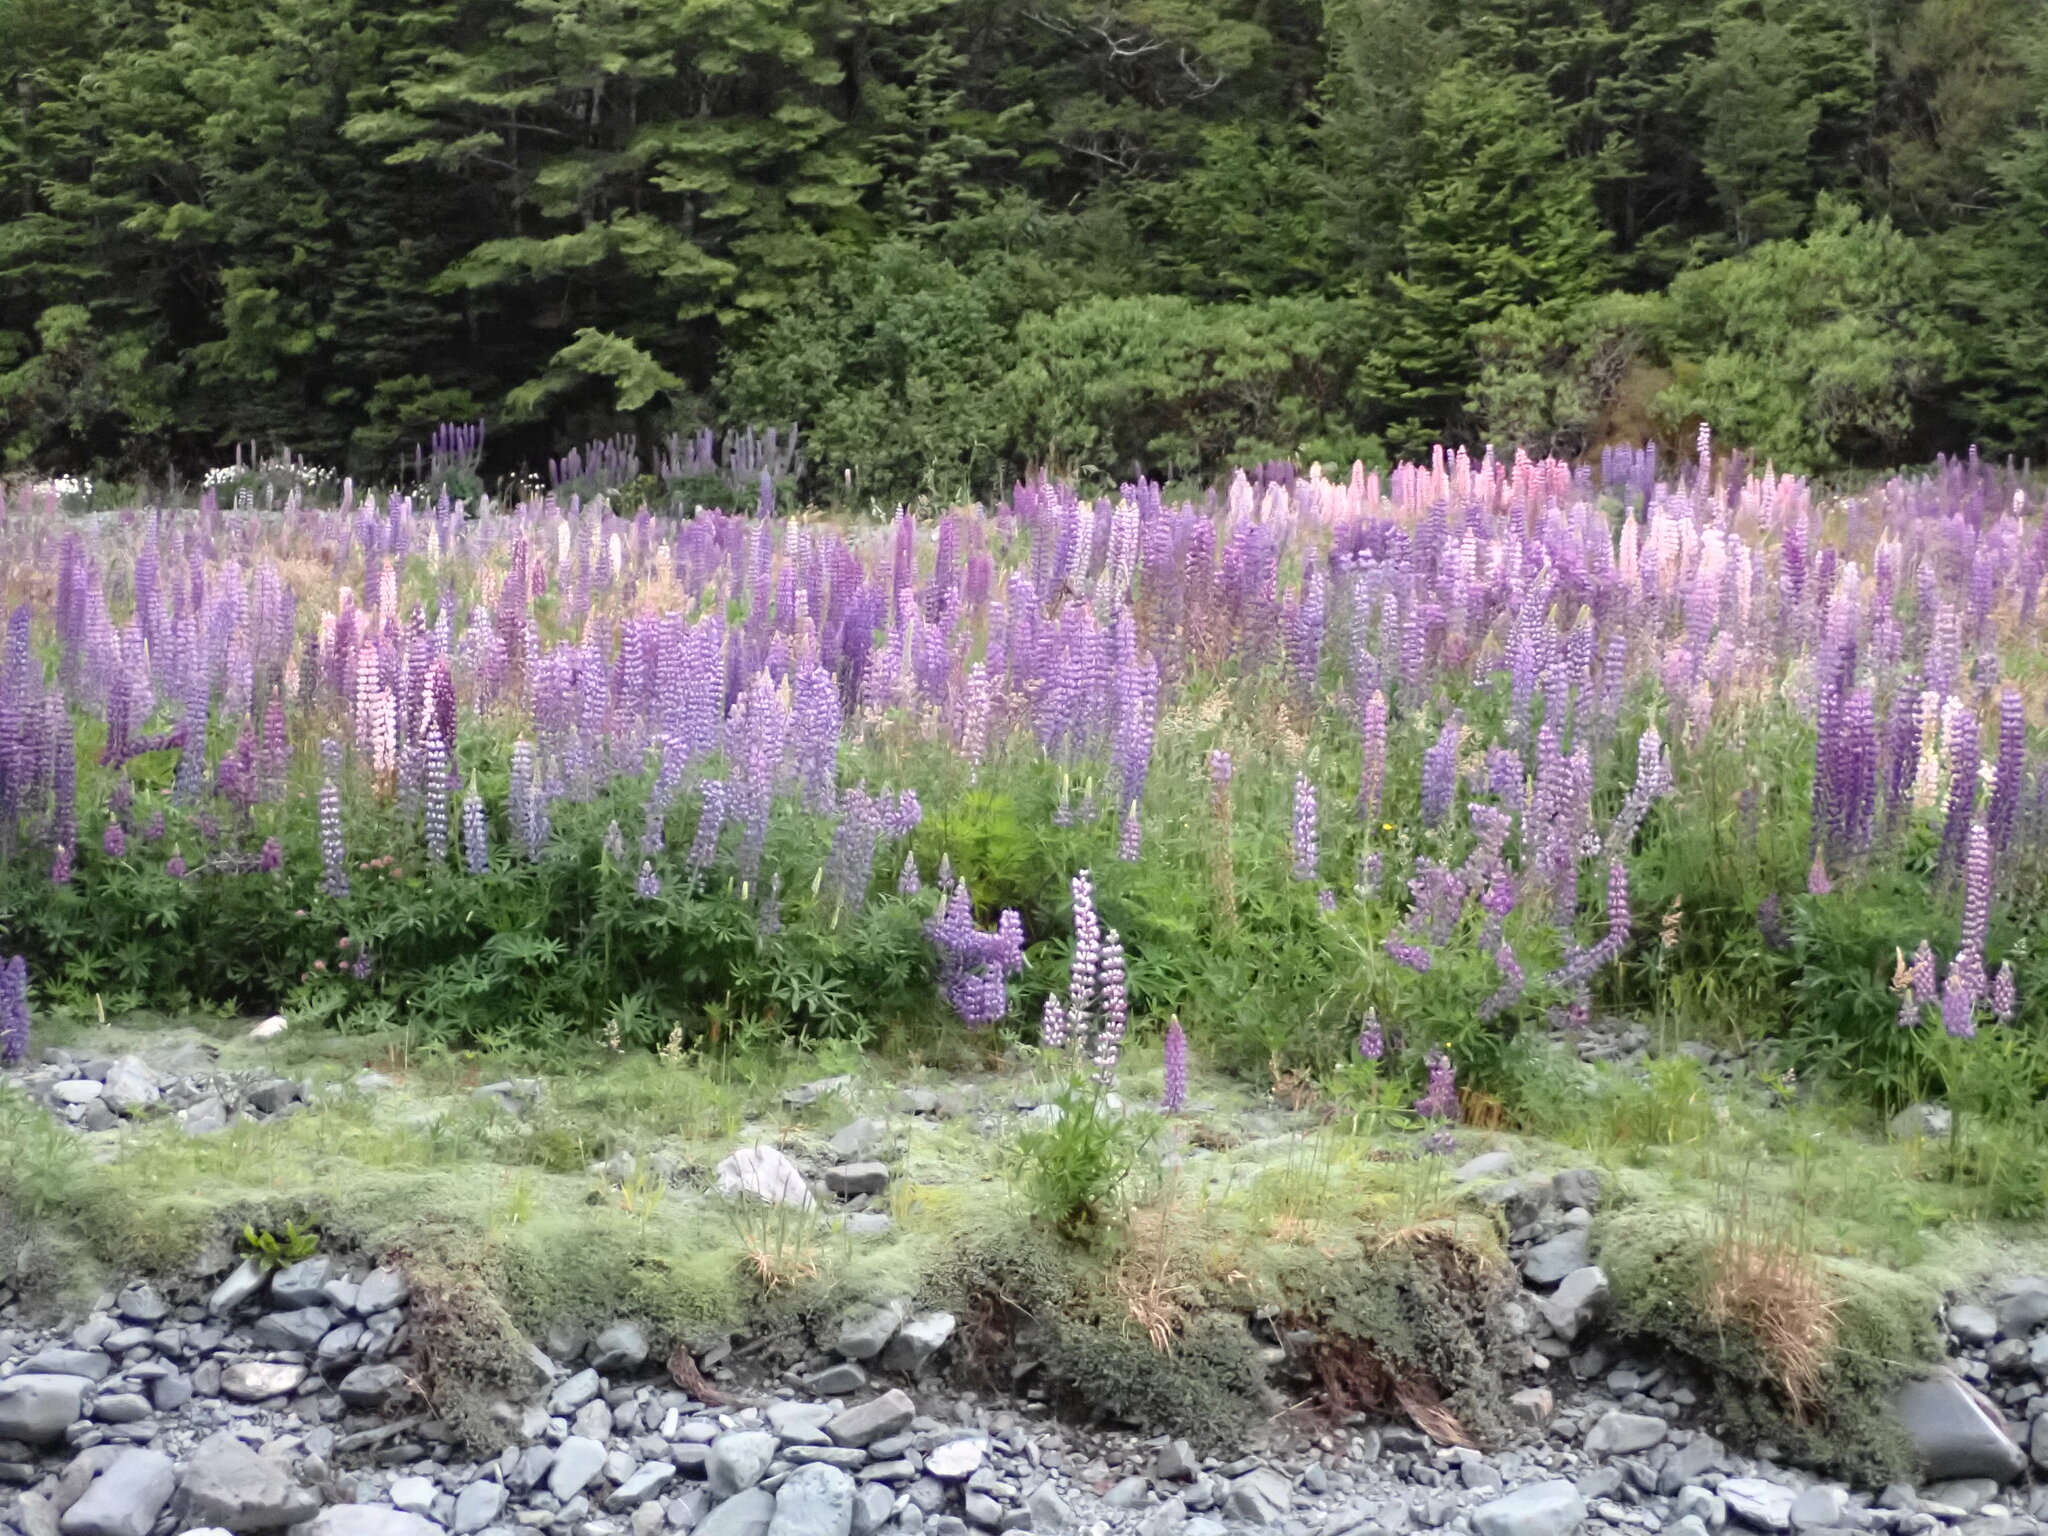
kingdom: Plantae
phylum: Tracheophyta
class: Magnoliopsida
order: Fabales
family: Fabaceae
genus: Lupinus
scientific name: Lupinus polyphyllus
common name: Garden lupin
